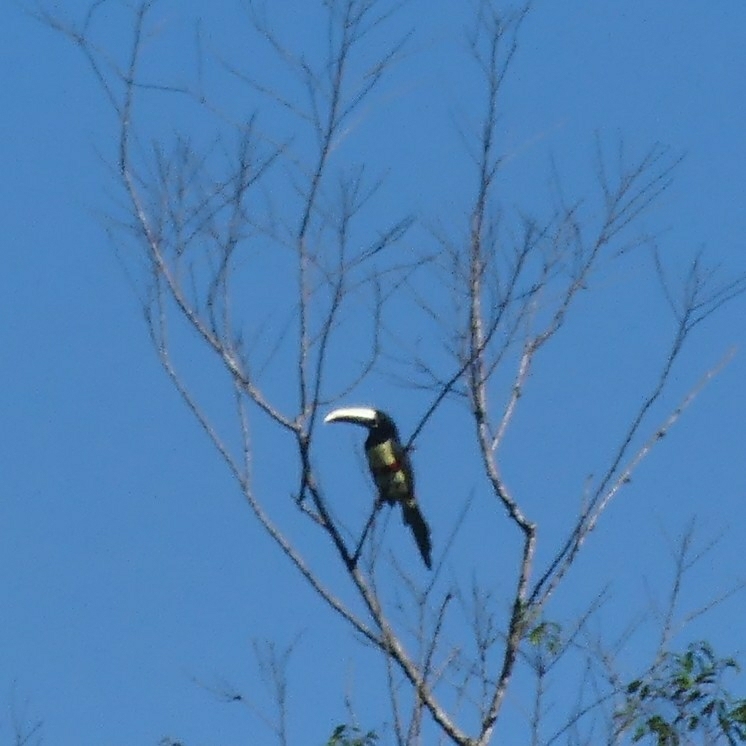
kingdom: Animalia
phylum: Chordata
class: Aves
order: Piciformes
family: Ramphastidae
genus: Pteroglossus
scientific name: Pteroglossus aracari
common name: Black-necked aracari
